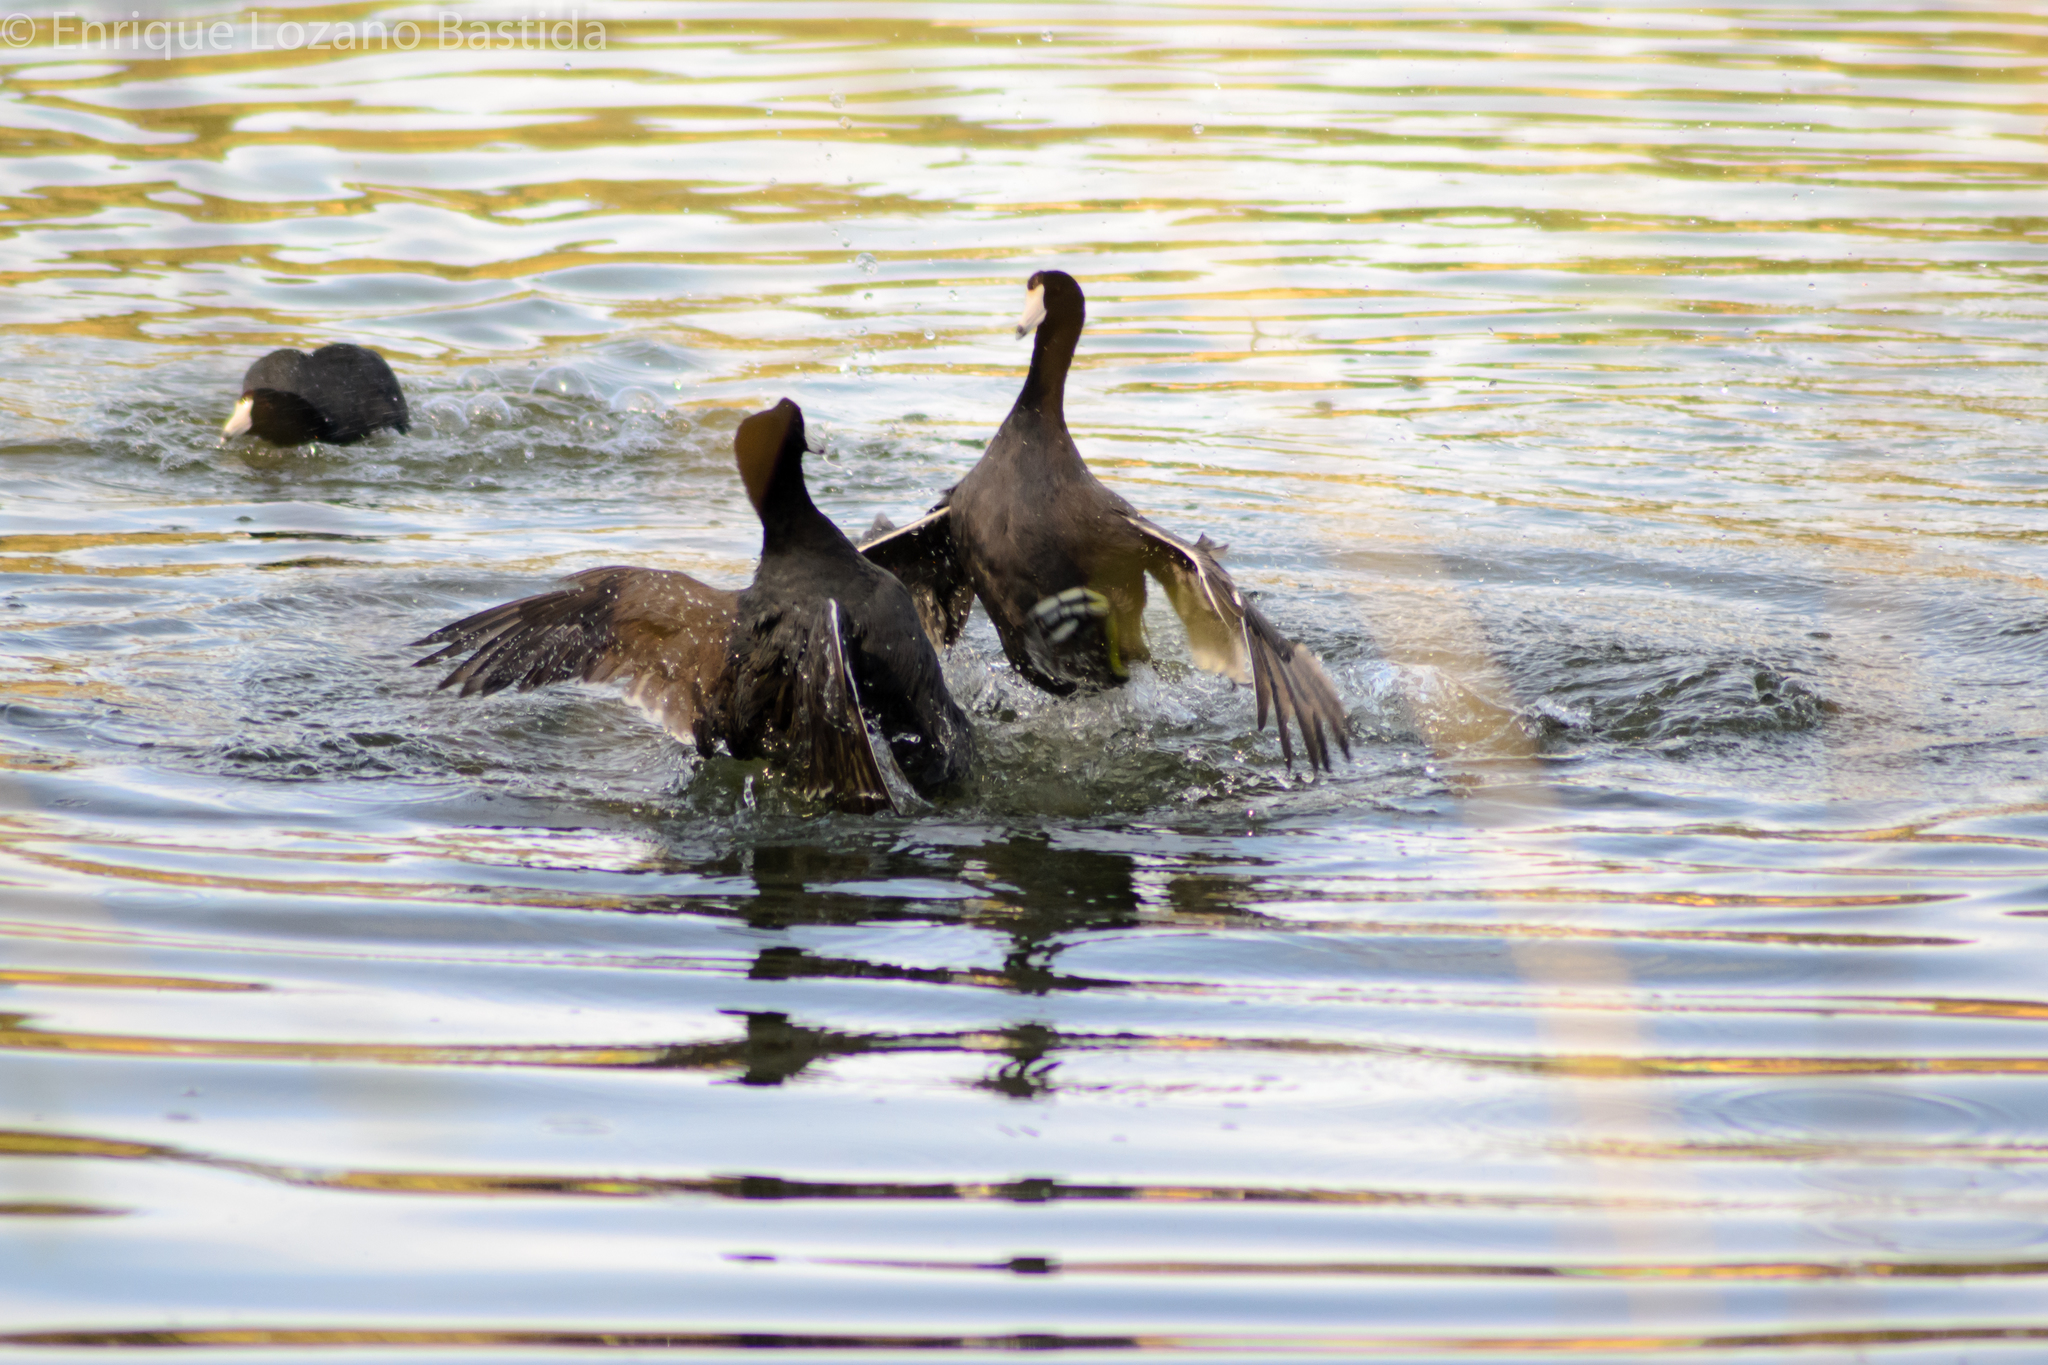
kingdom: Animalia
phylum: Chordata
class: Aves
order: Gruiformes
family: Rallidae
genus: Fulica
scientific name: Fulica americana
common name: American coot
